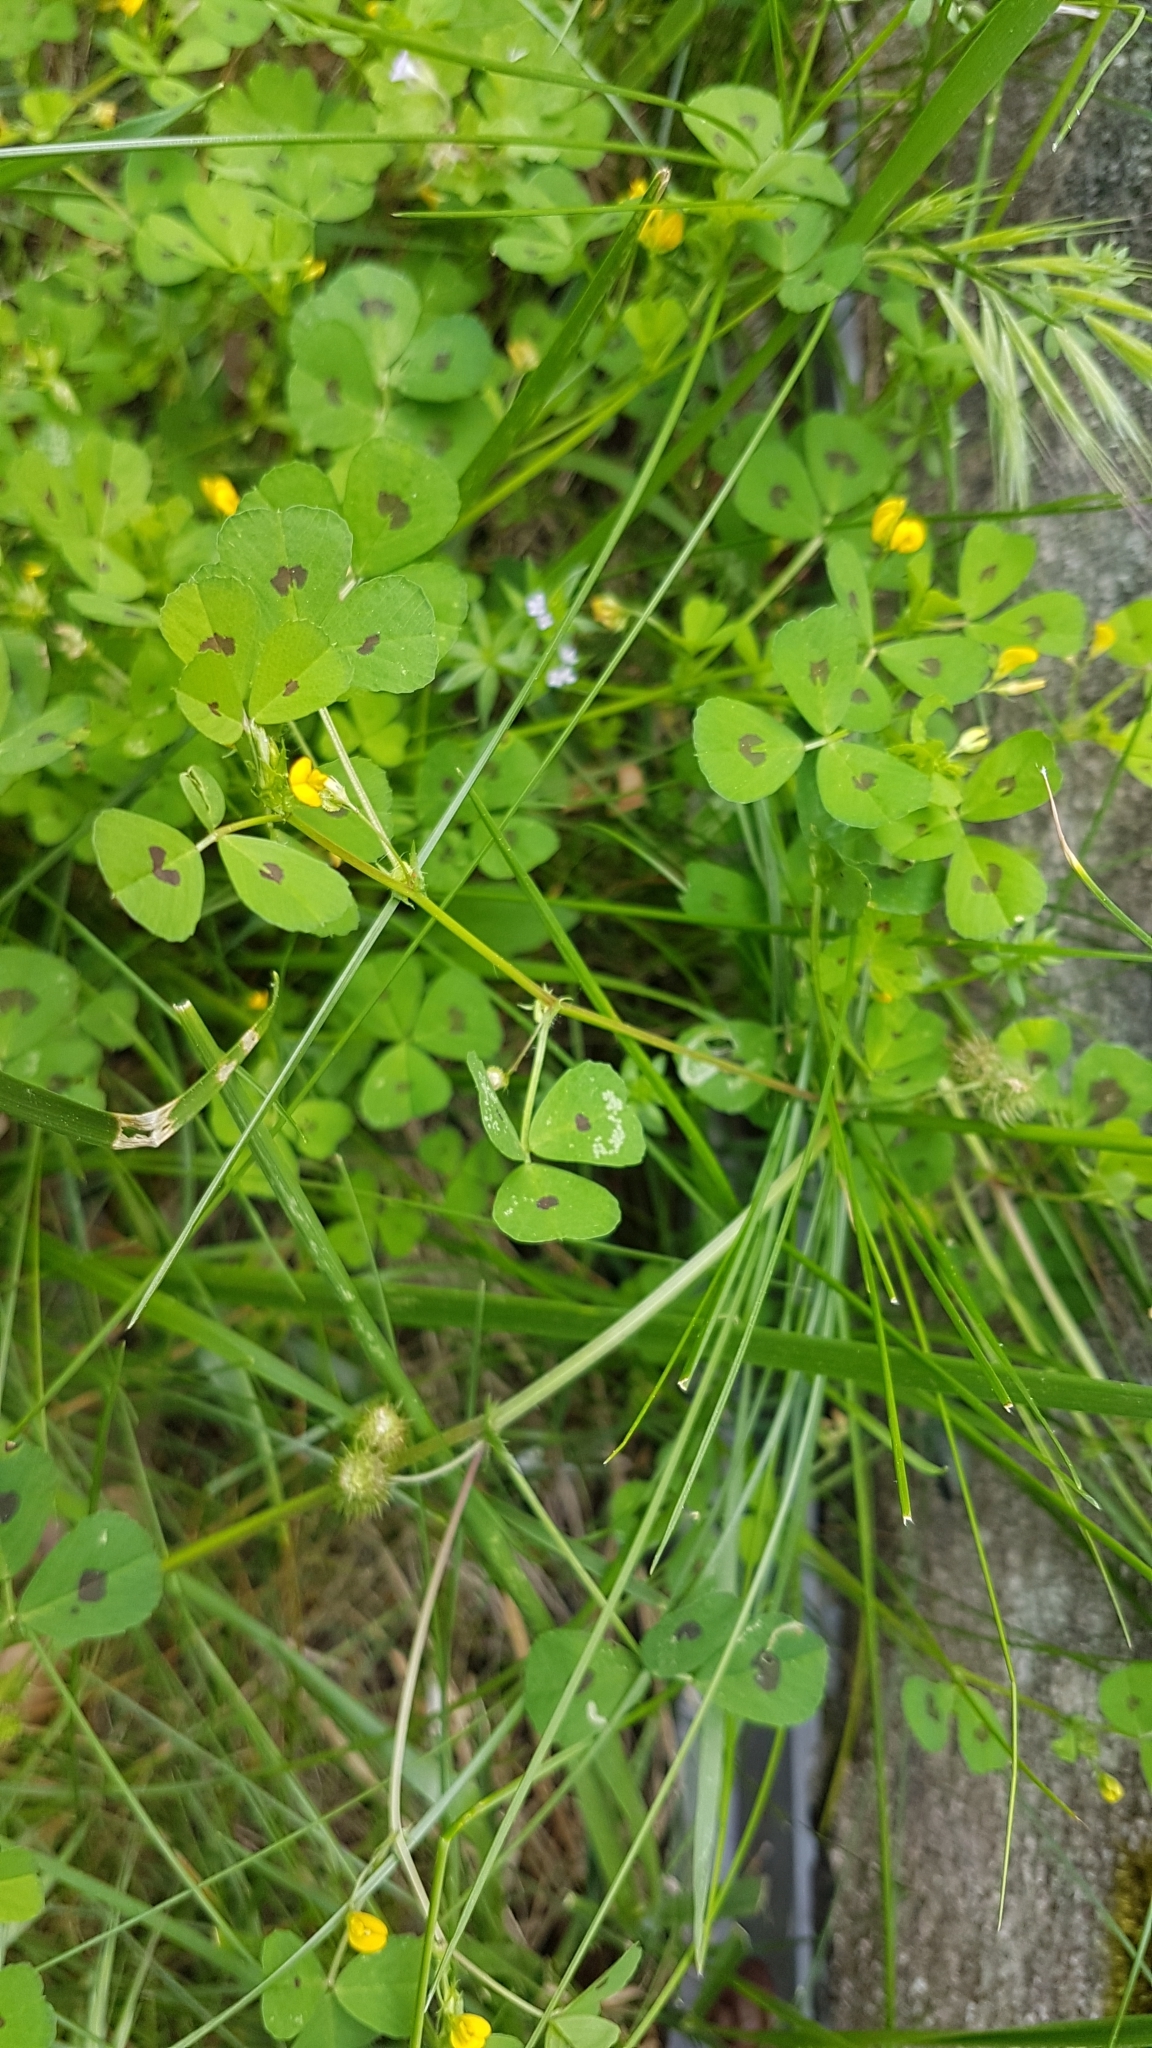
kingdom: Plantae
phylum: Tracheophyta
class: Magnoliopsida
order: Fabales
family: Fabaceae
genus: Medicago
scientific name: Medicago arabica
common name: Spotted medick
